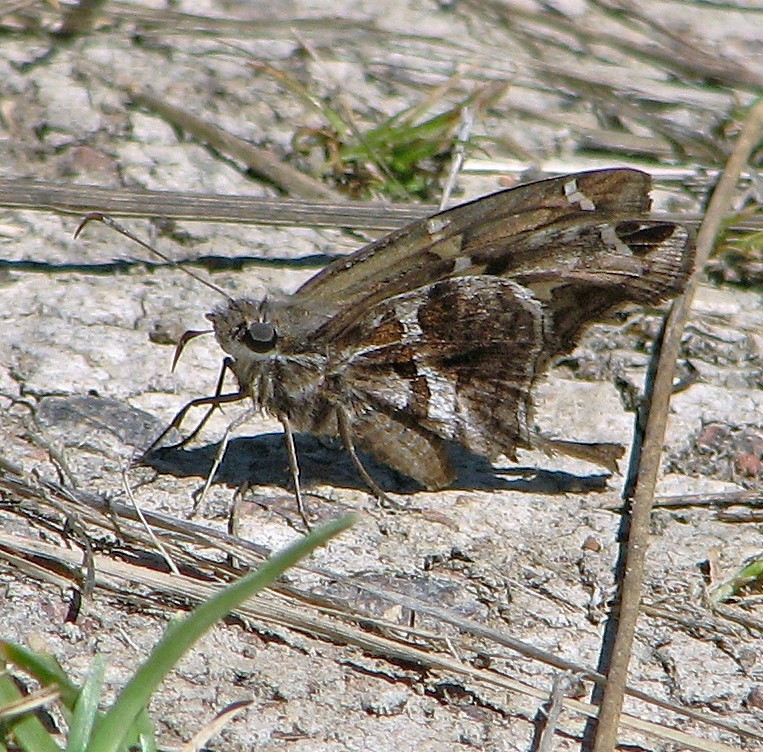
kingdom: Animalia
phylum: Arthropoda
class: Insecta
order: Lepidoptera
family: Hesperiidae
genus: Chioides
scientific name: Chioides catillus
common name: Silverbanded skipper
